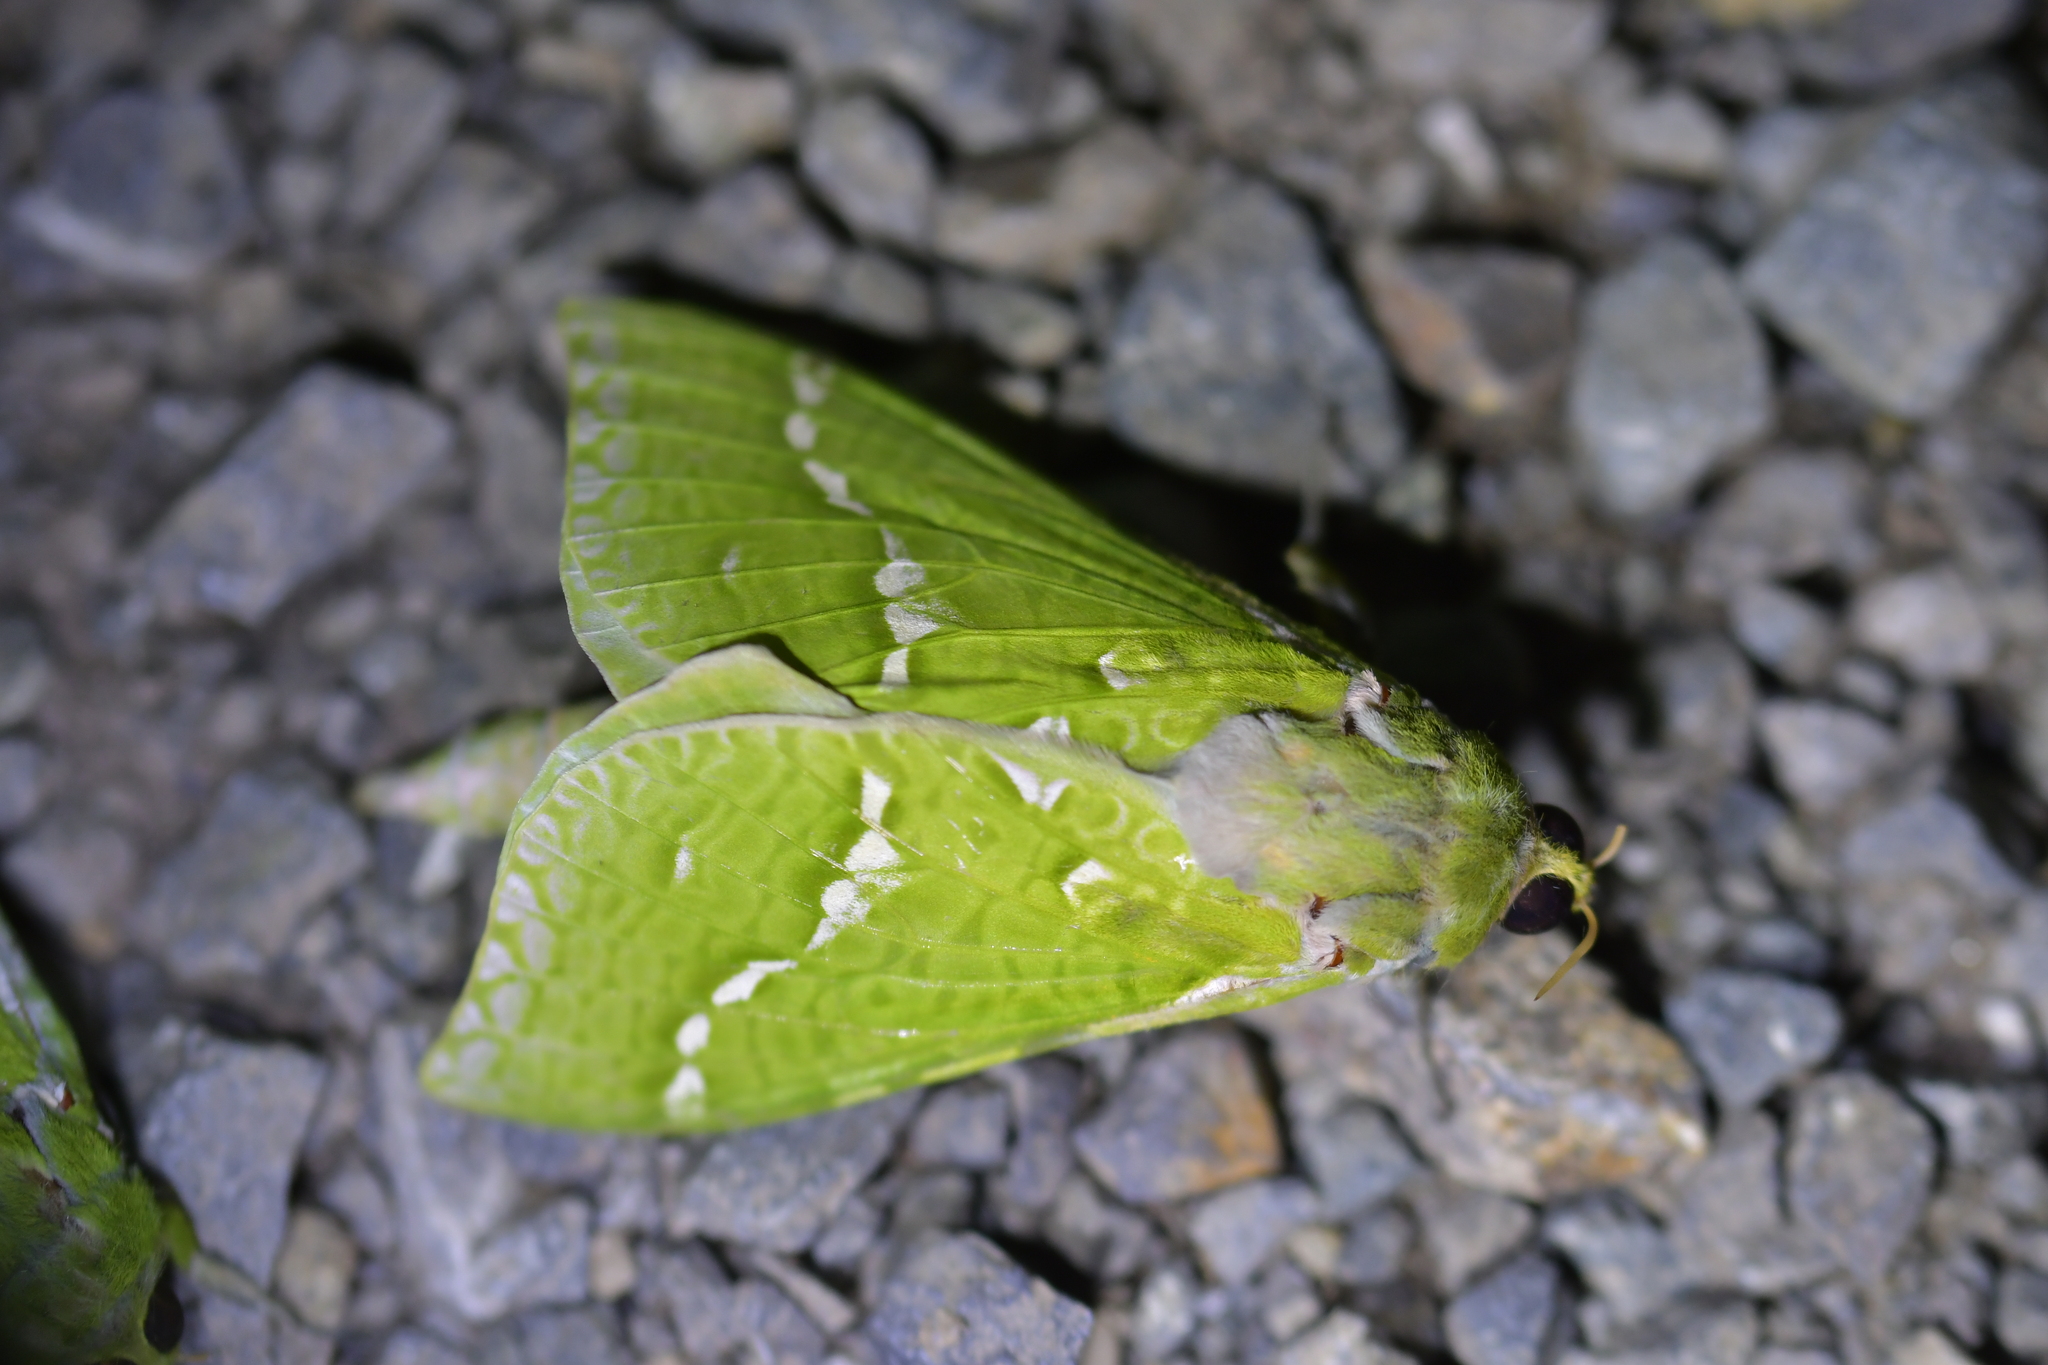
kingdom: Animalia
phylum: Arthropoda
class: Insecta
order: Lepidoptera
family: Hepialidae
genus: Aenetus
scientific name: Aenetus virescens
